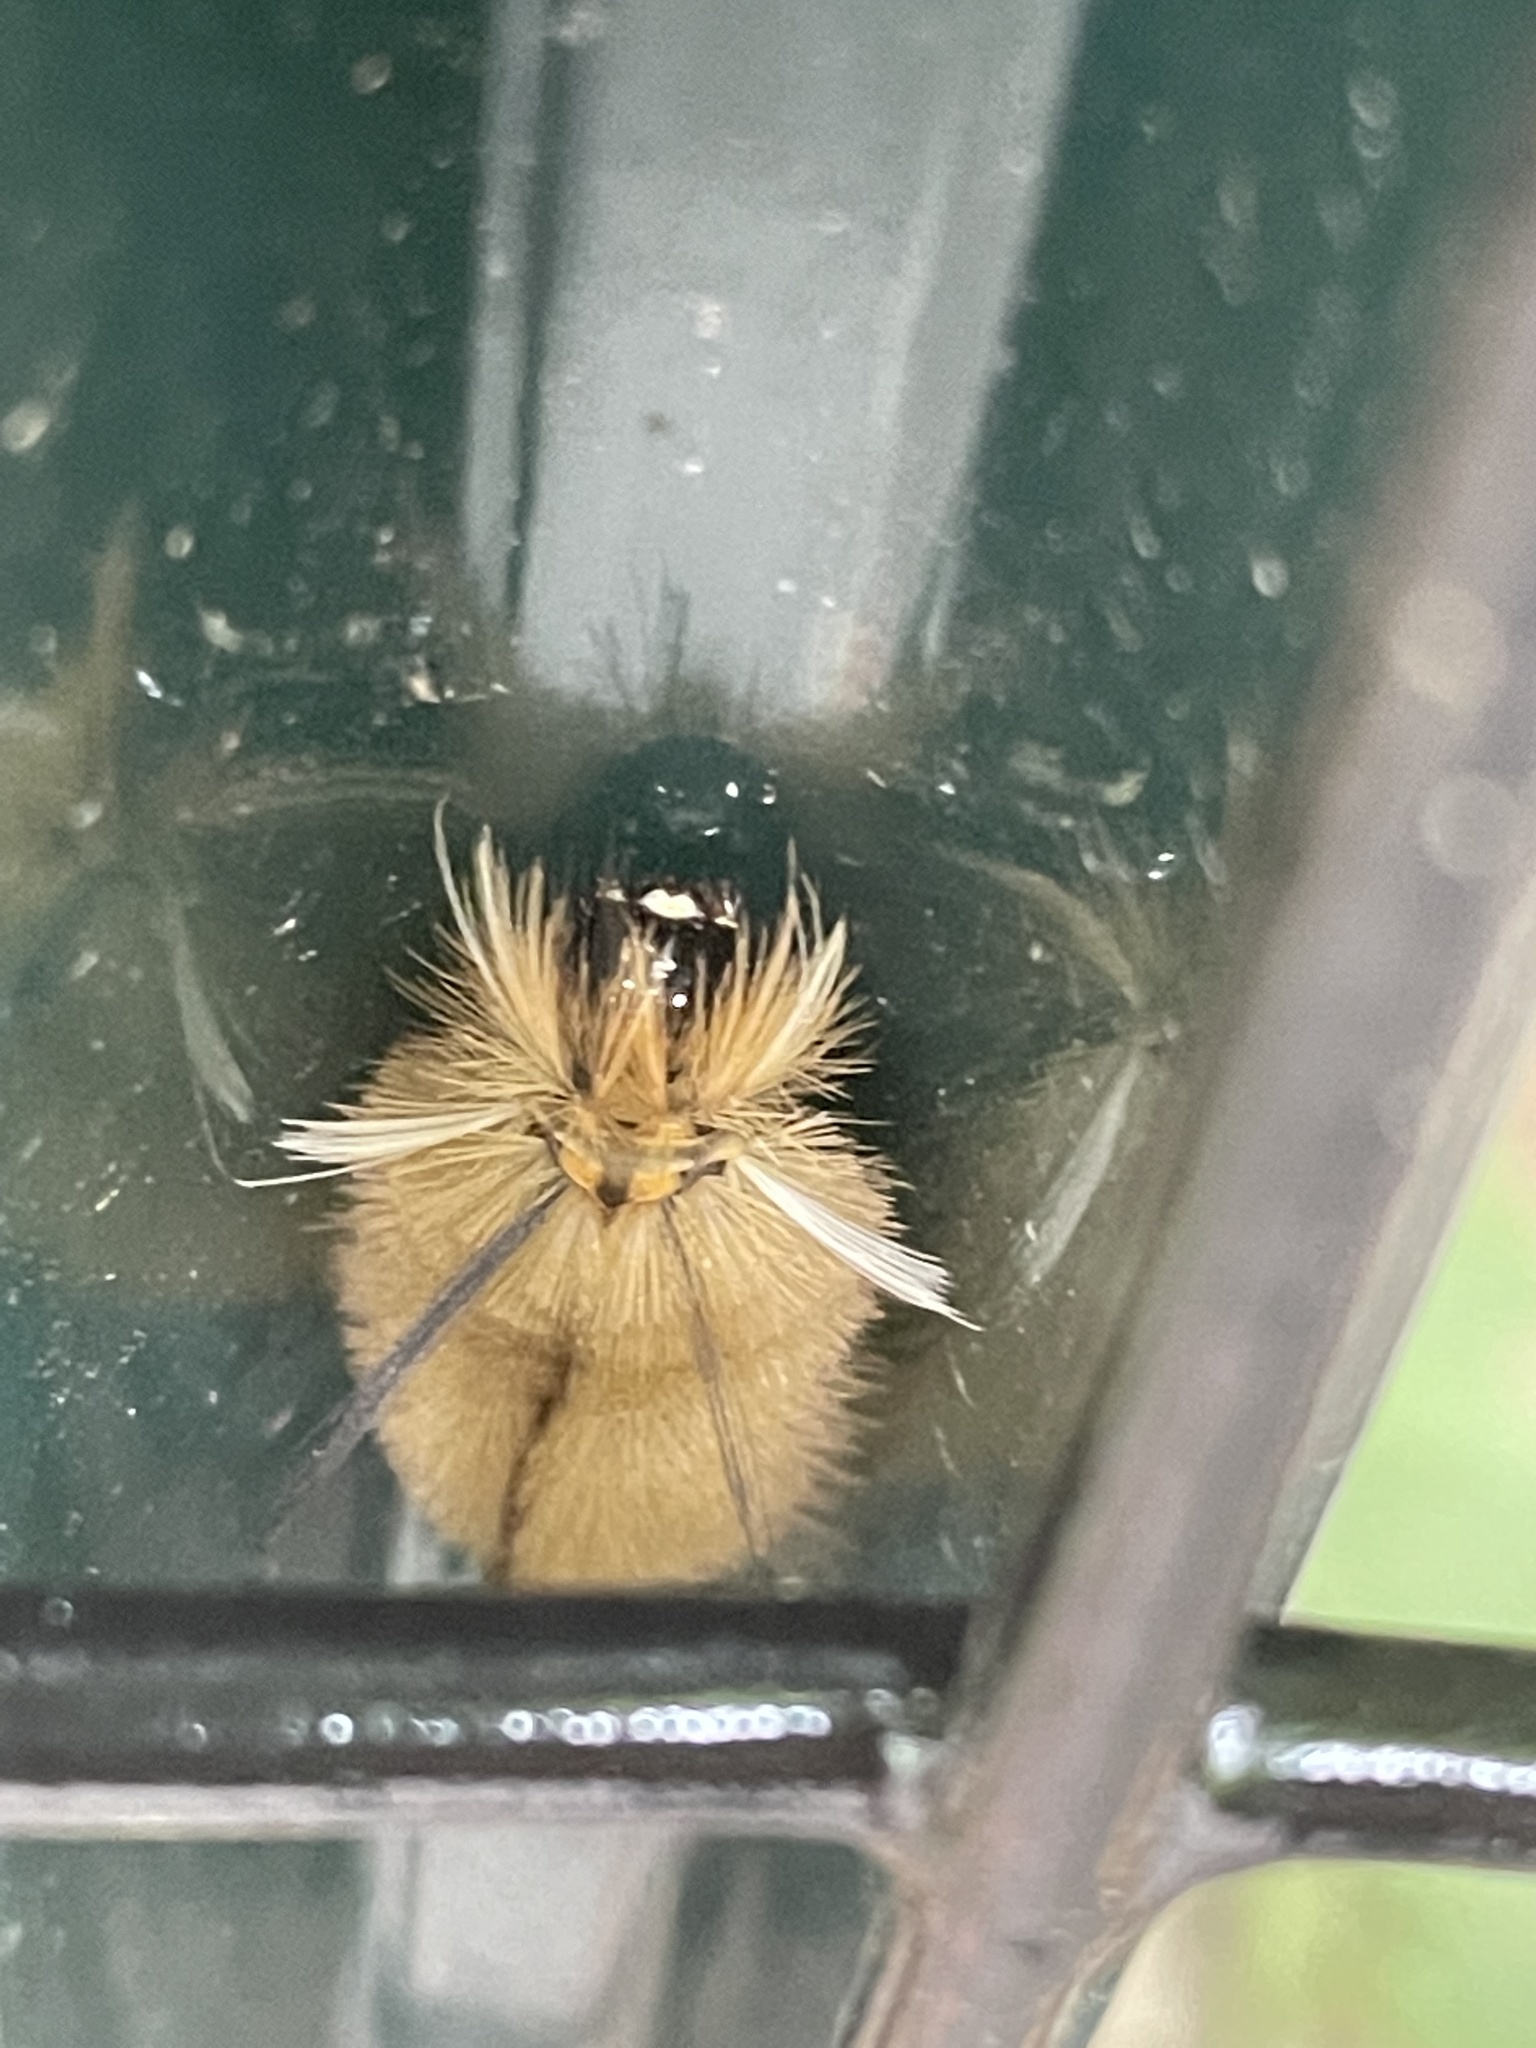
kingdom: Animalia
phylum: Arthropoda
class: Insecta
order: Lepidoptera
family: Erebidae
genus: Halysidota
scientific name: Halysidota tessellaris
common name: Banded tussock moth
